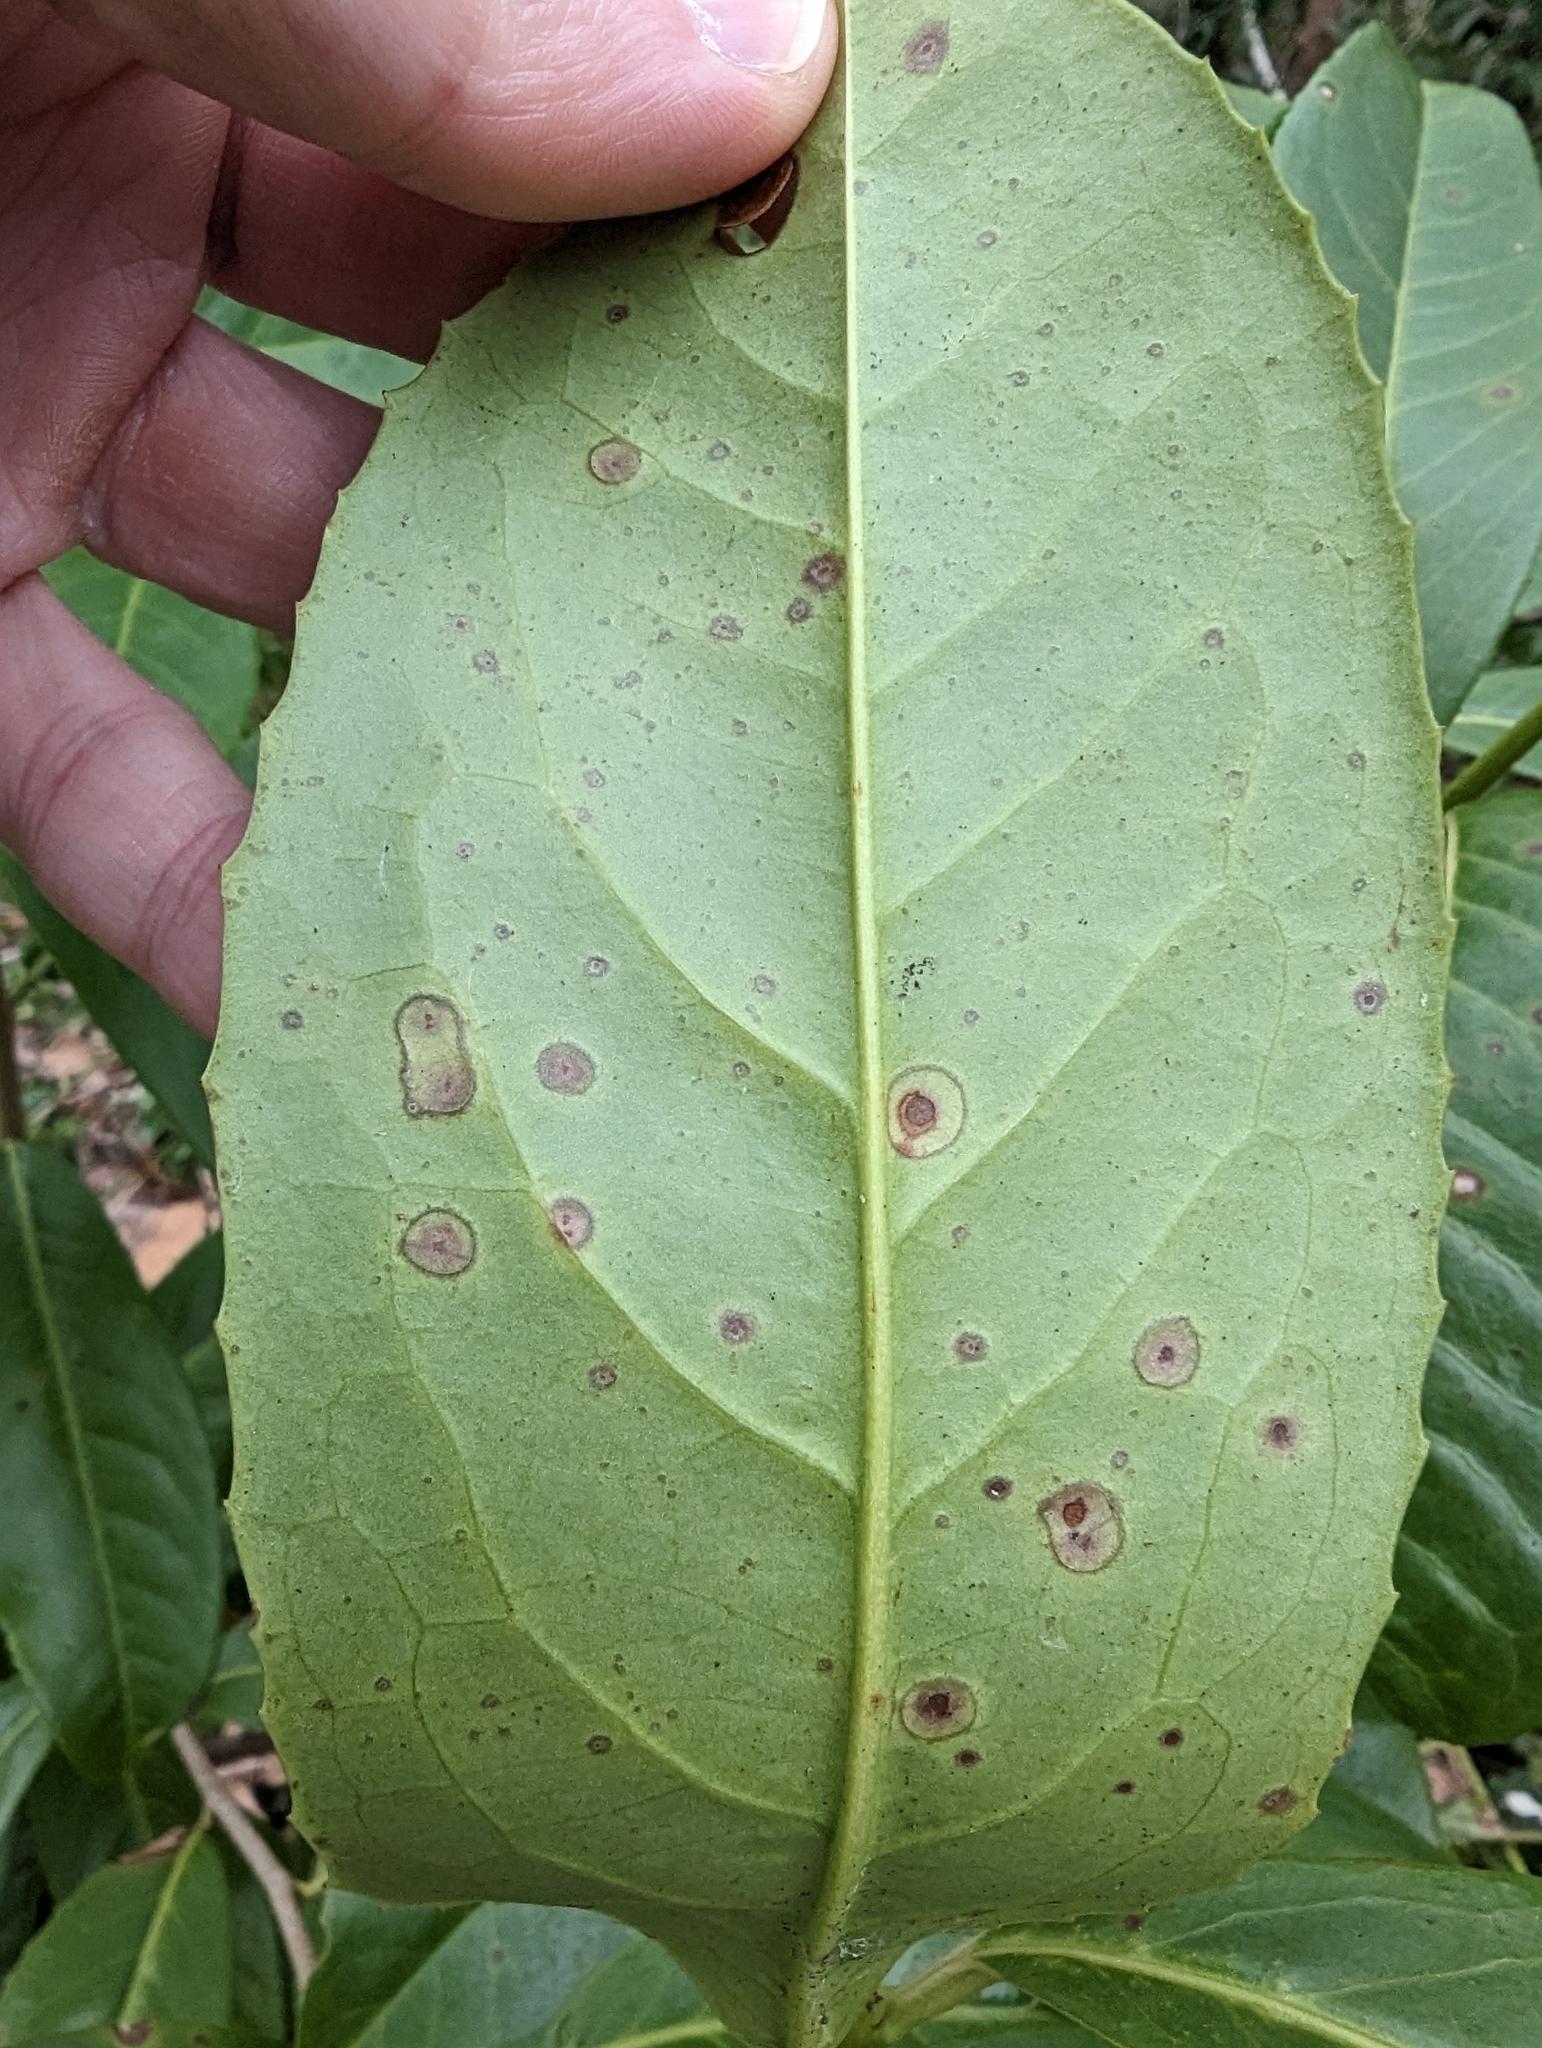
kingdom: Plantae
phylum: Tracheophyta
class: Magnoliopsida
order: Rosales
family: Rosaceae
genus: Prunus
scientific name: Prunus laurocerasus
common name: Cherry laurel
